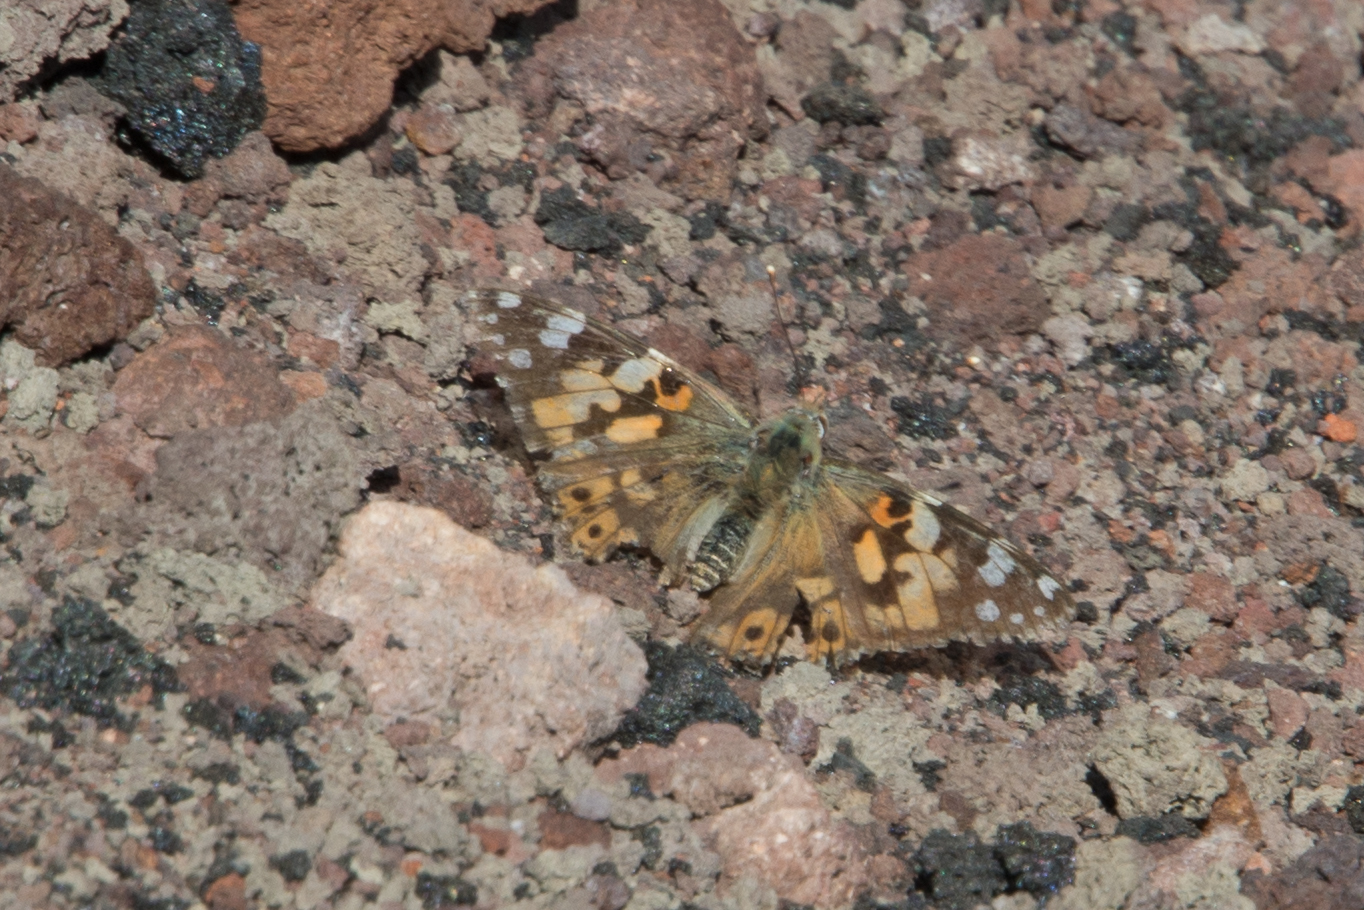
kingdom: Animalia
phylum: Arthropoda
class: Insecta
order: Lepidoptera
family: Nymphalidae
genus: Vanessa
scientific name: Vanessa cardui
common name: Painted lady
